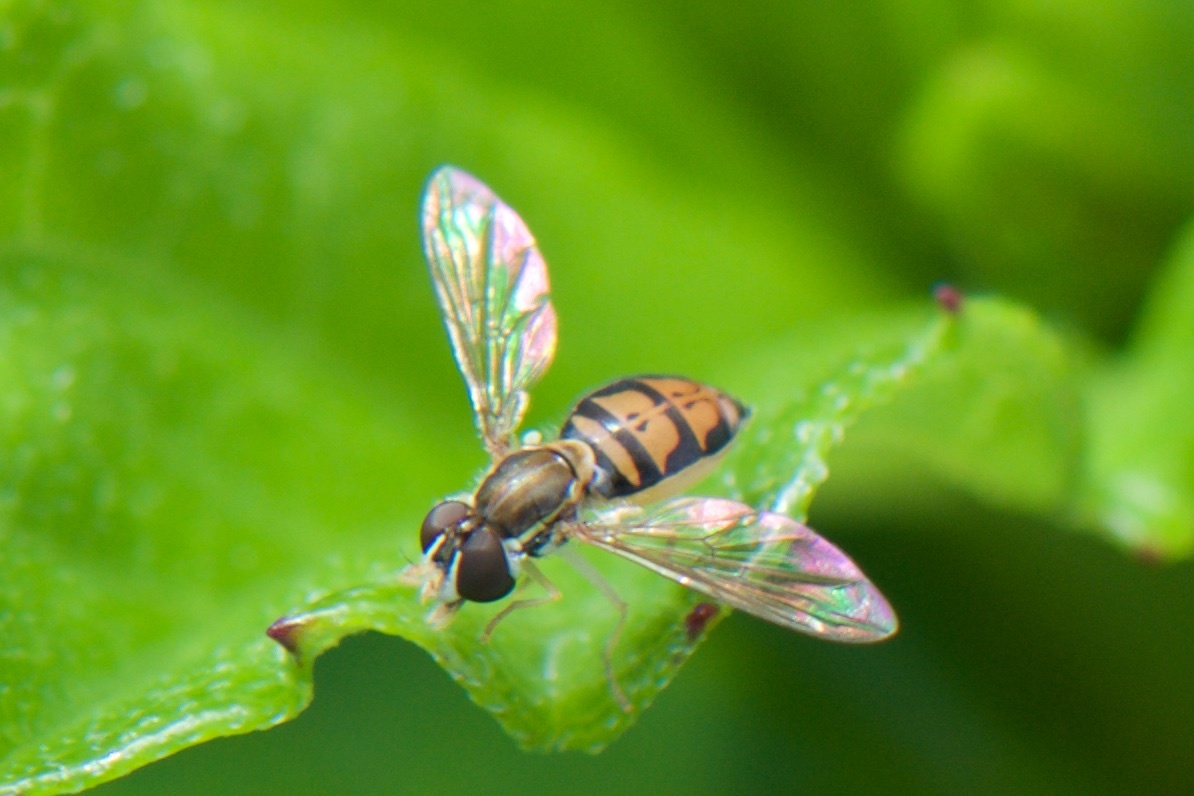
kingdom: Animalia
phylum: Arthropoda
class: Insecta
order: Diptera
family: Syrphidae
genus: Toxomerus
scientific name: Toxomerus marginatus
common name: Syrphid fly
